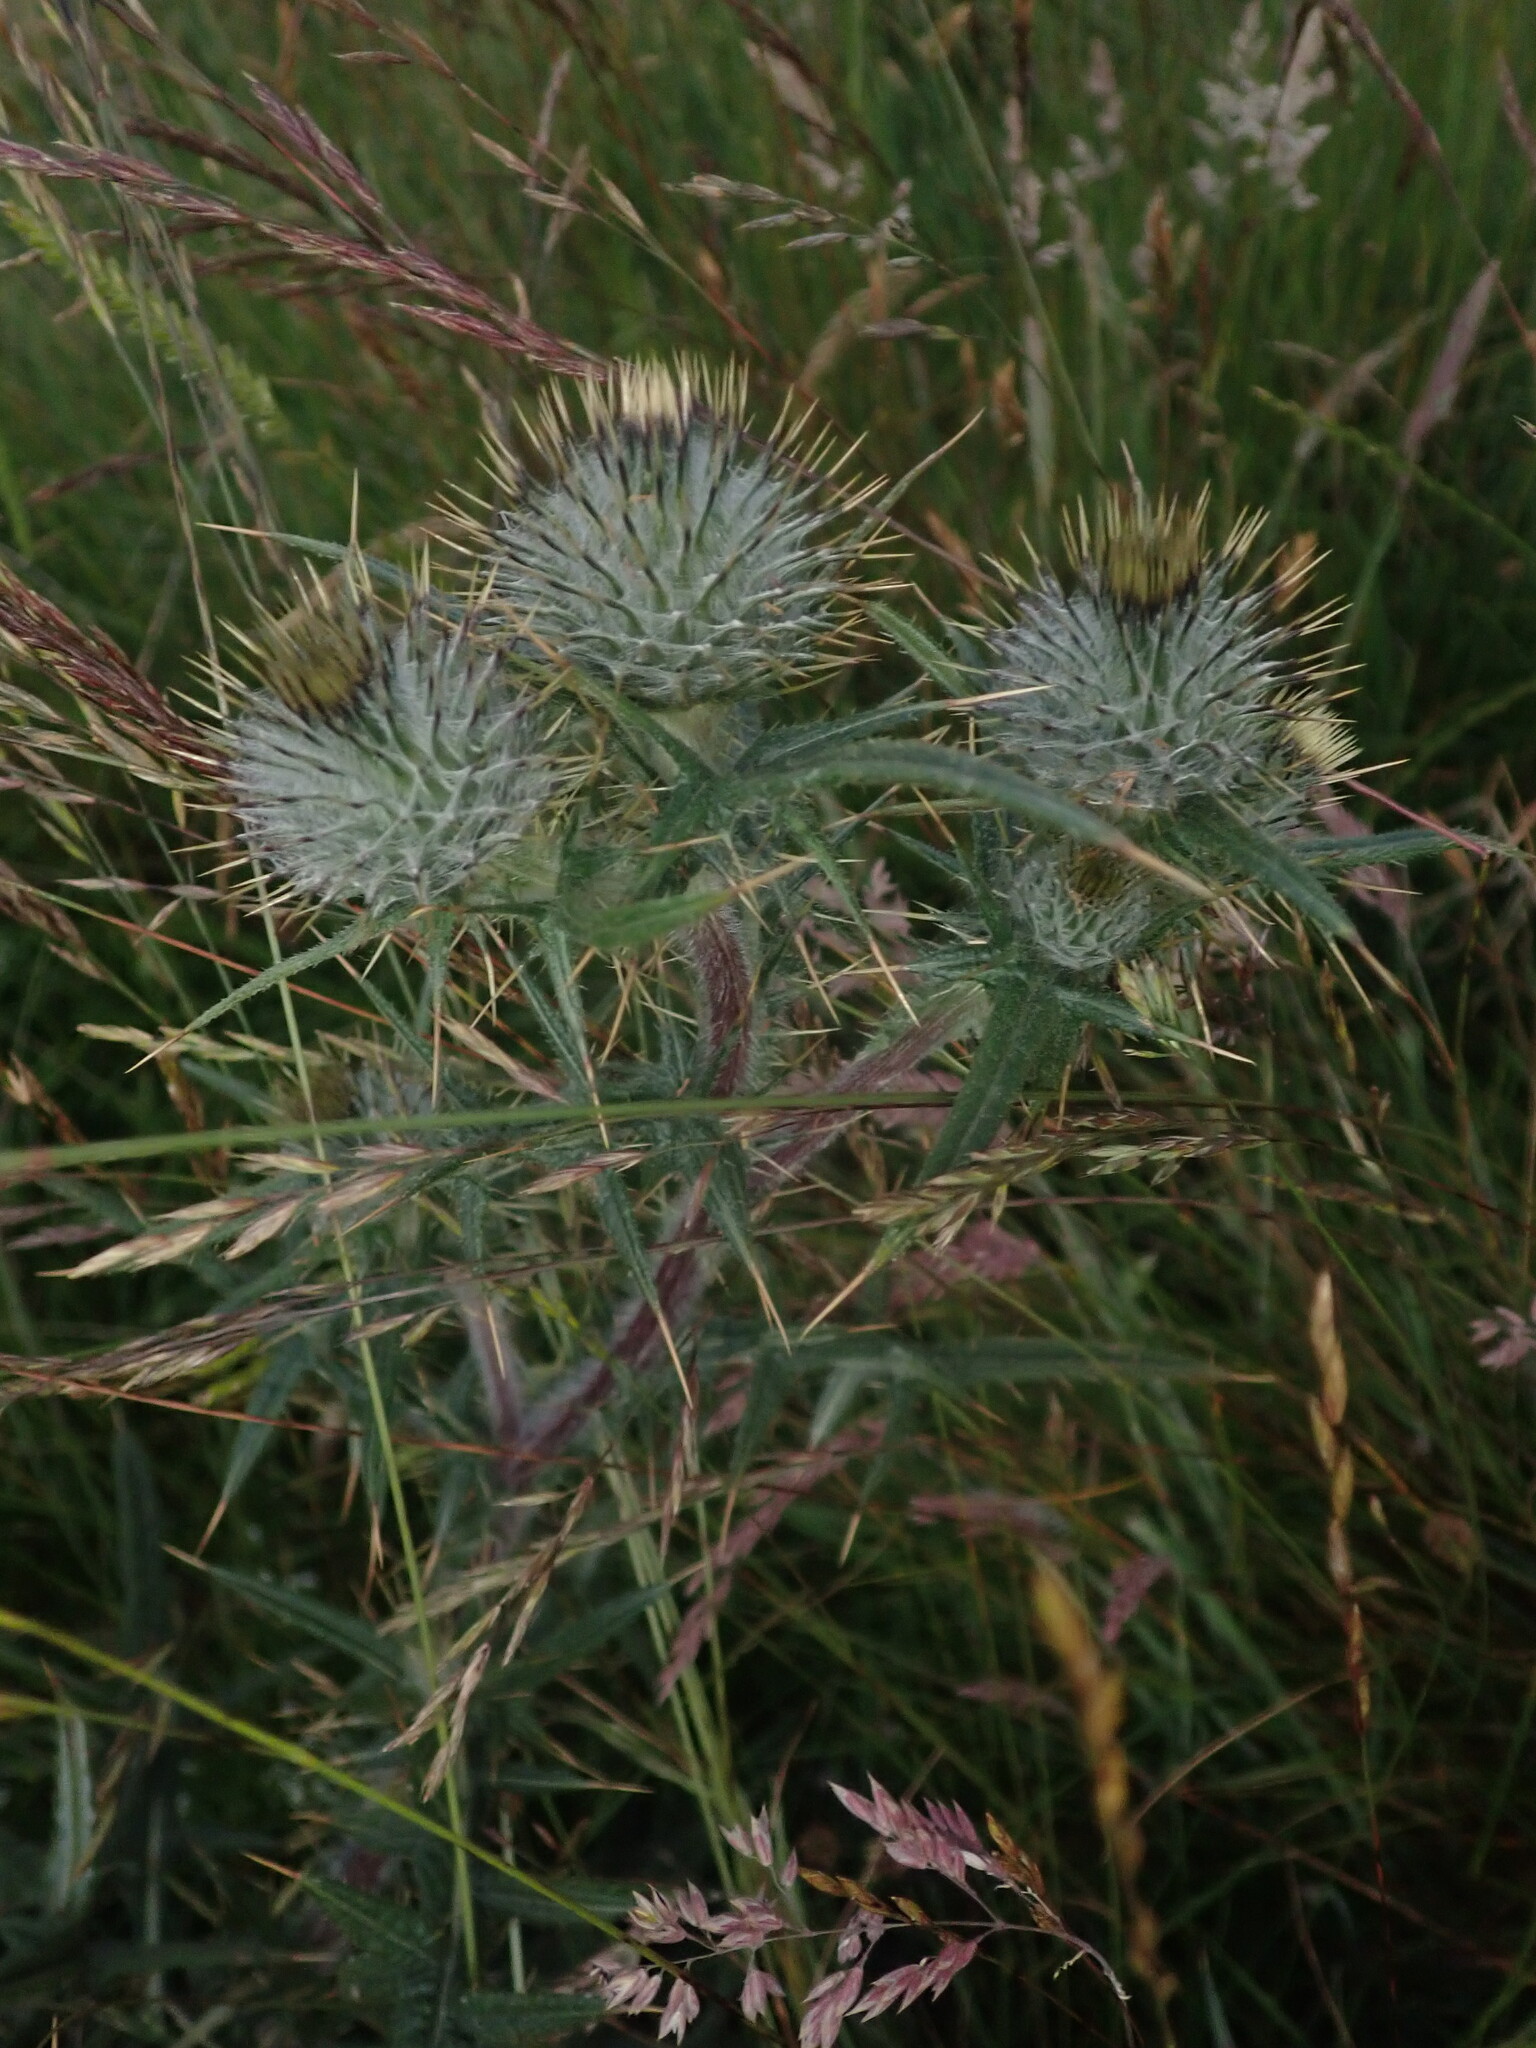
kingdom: Plantae
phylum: Tracheophyta
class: Magnoliopsida
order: Asterales
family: Asteraceae
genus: Cirsium
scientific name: Cirsium vulgare
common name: Bull thistle
